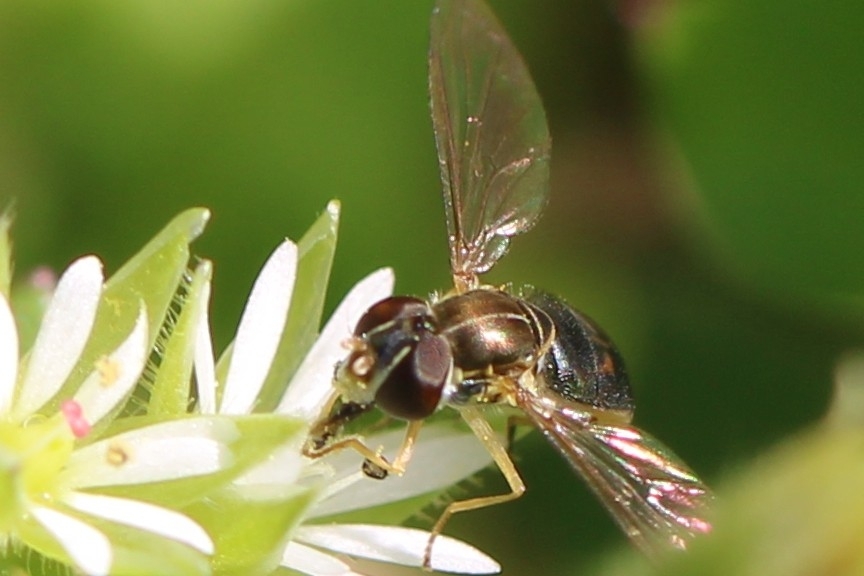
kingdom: Animalia
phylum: Arthropoda
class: Insecta
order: Diptera
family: Syrphidae
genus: Toxomerus
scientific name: Toxomerus marginatus
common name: Syrphid fly
